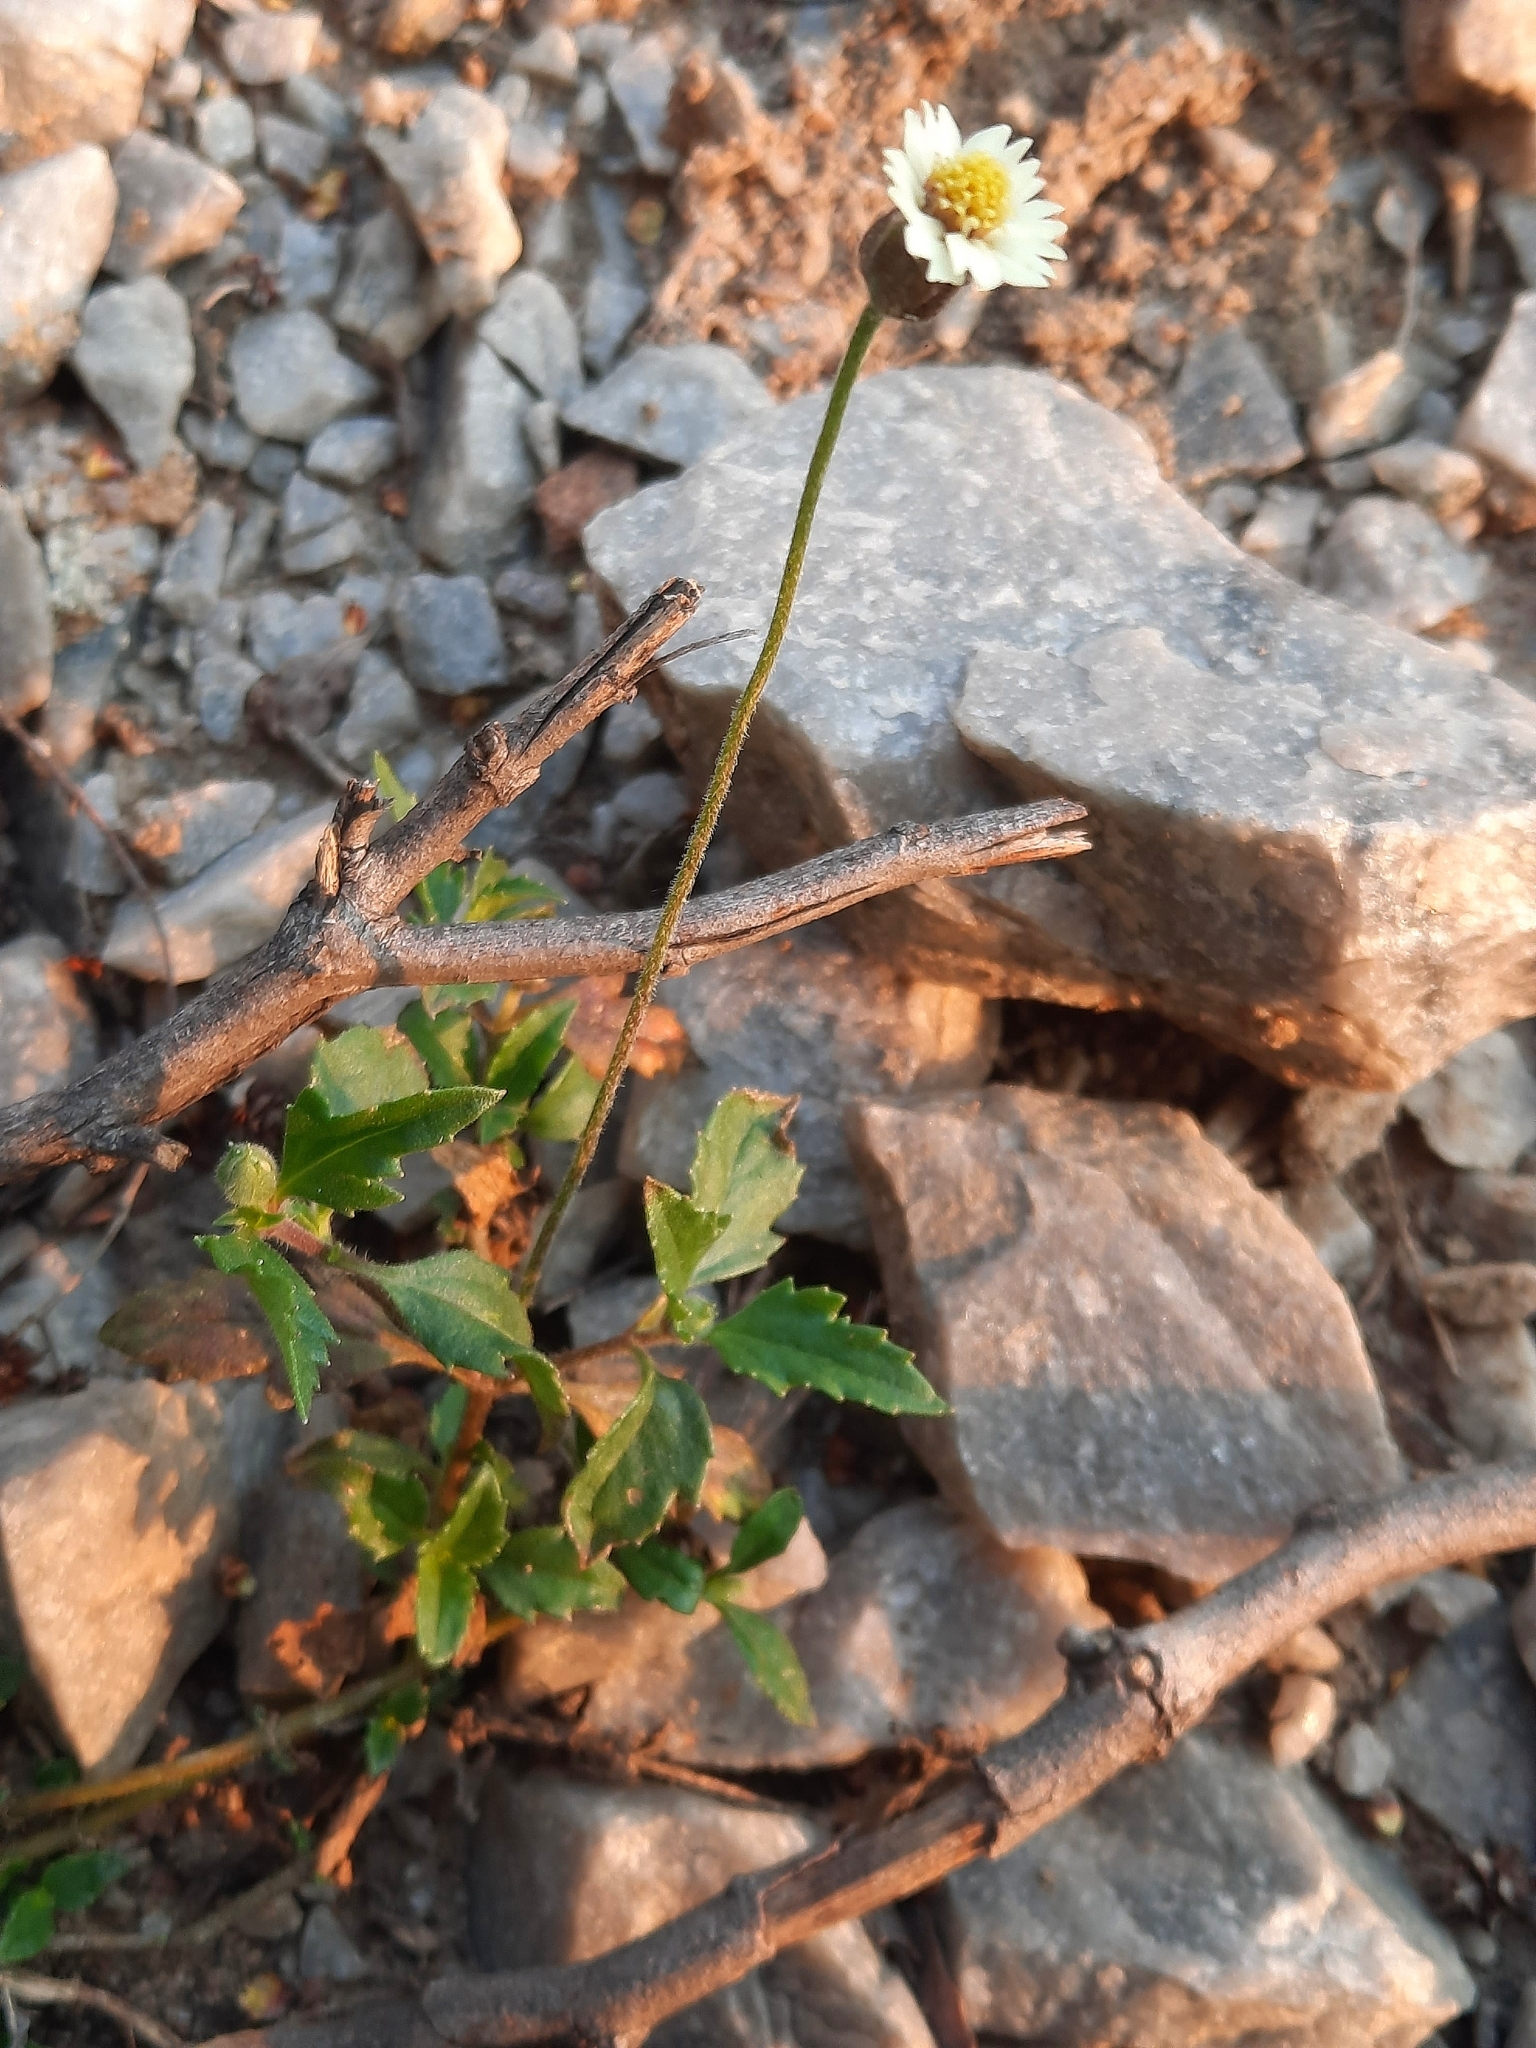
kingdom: Plantae
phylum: Tracheophyta
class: Magnoliopsida
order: Asterales
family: Asteraceae
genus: Tridax
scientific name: Tridax procumbens
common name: Coatbuttons
